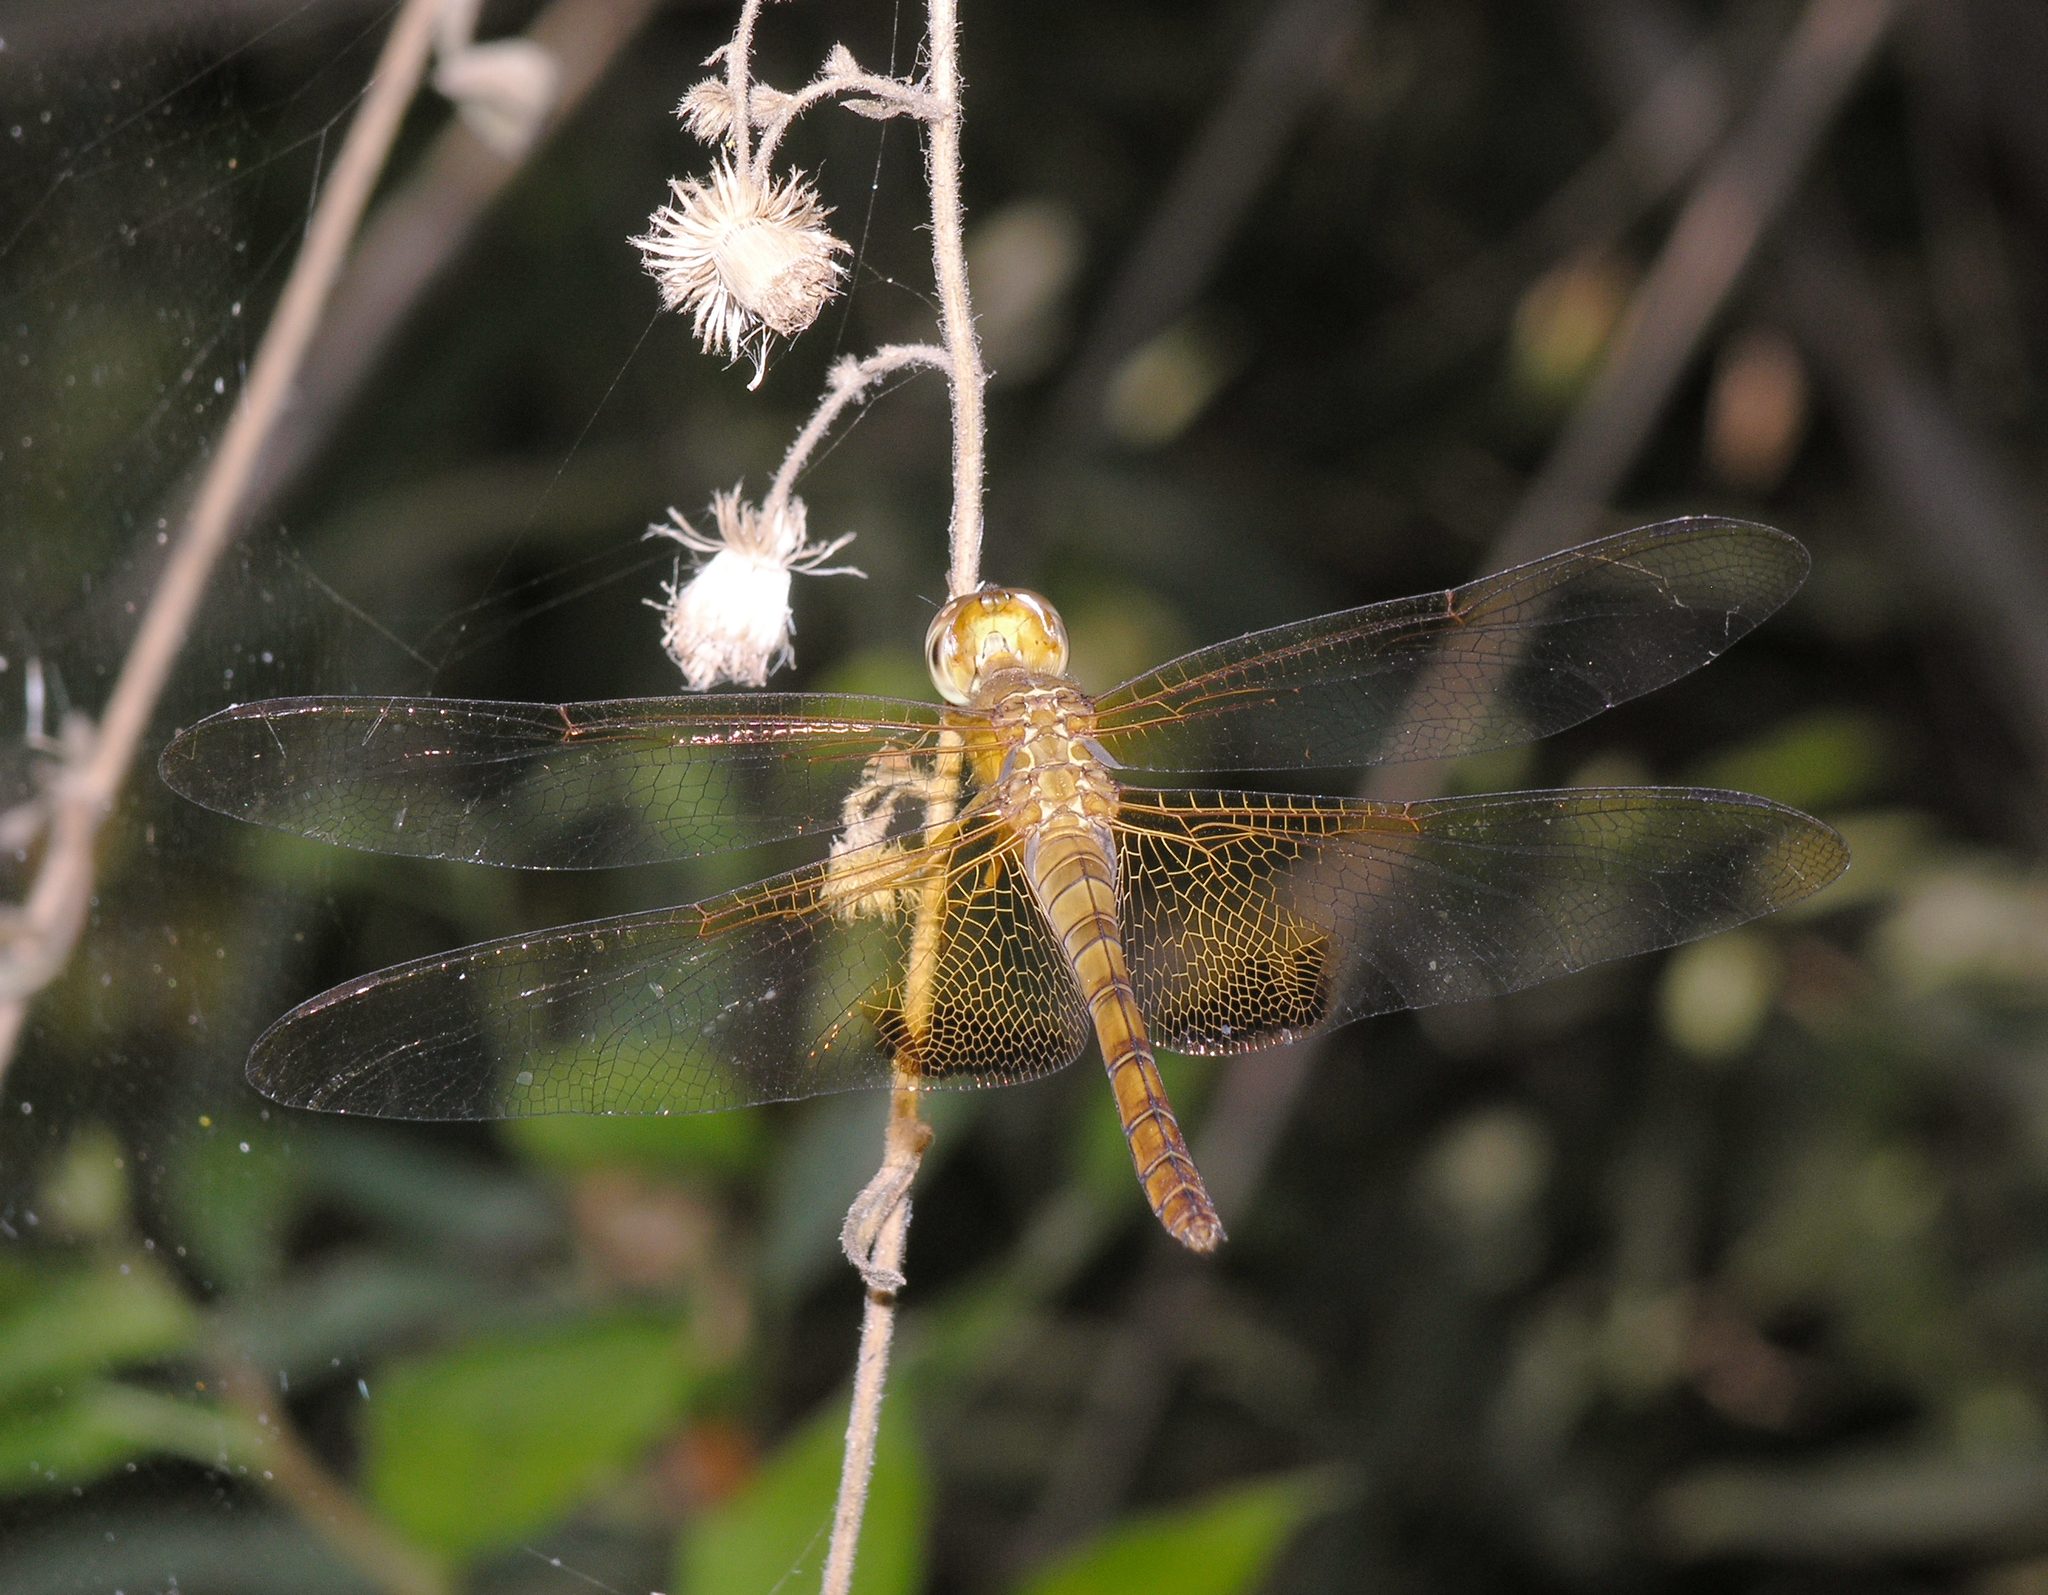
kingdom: Animalia
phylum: Arthropoda
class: Insecta
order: Odonata
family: Libellulidae
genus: Hydrobasileus
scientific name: Hydrobasileus croceus
